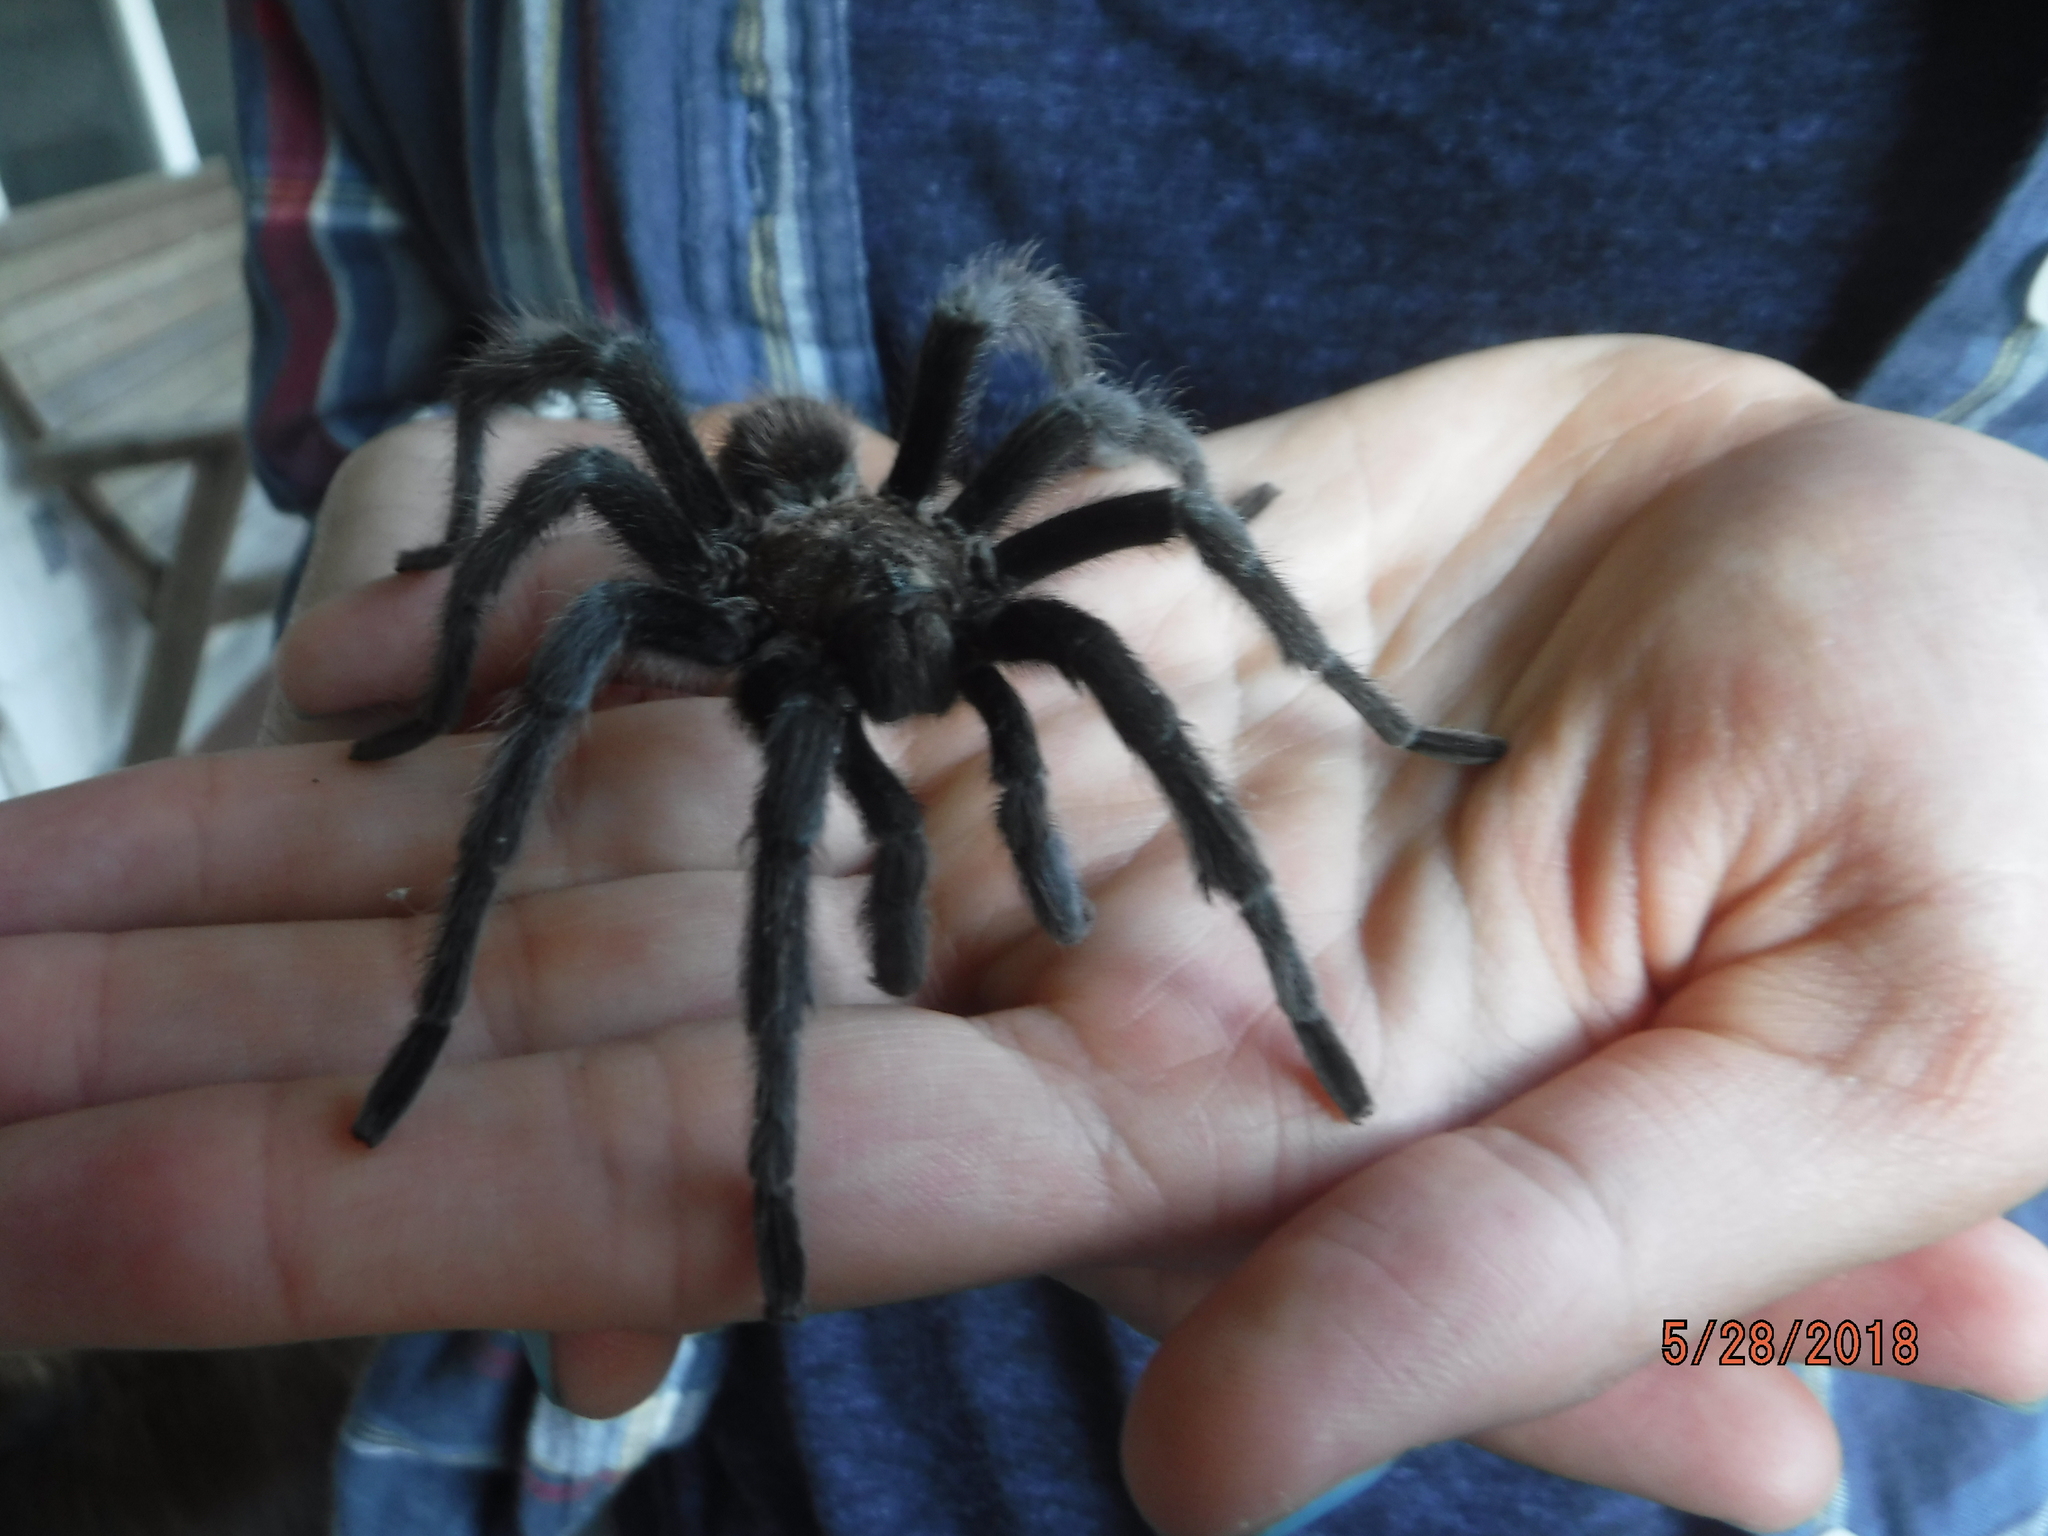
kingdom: Animalia
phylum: Arthropoda
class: Arachnida
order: Araneae
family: Theraphosidae
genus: Aphonopelma
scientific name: Aphonopelma hentzi
